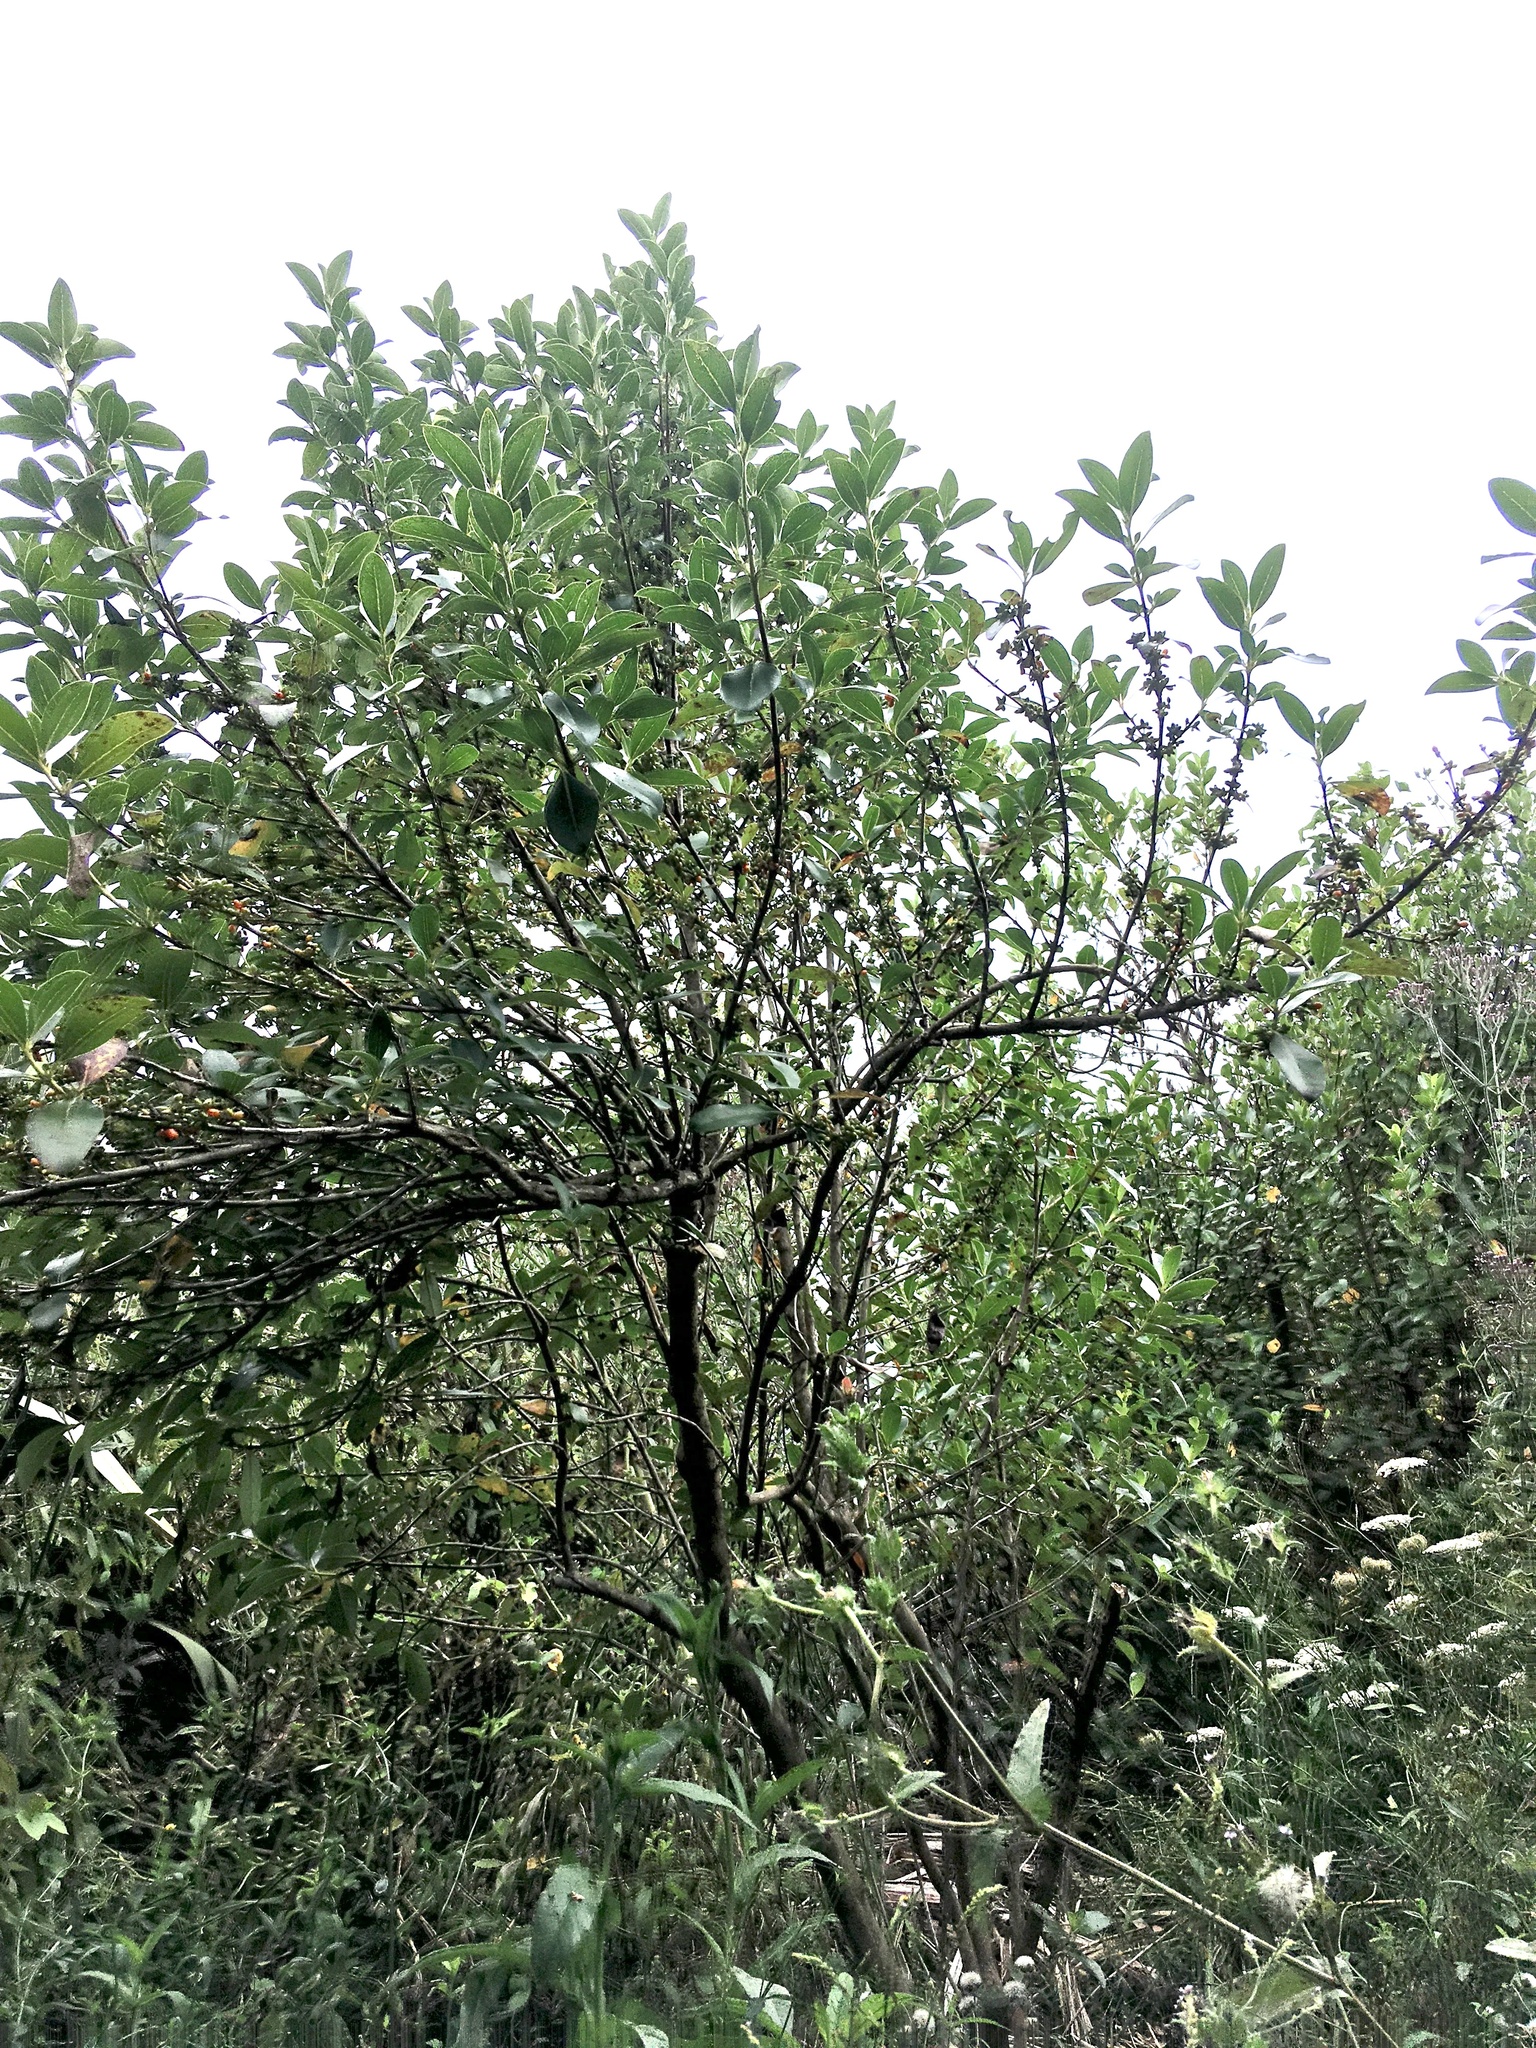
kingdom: Plantae
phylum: Tracheophyta
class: Magnoliopsida
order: Gentianales
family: Rubiaceae
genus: Coprosma
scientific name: Coprosma robusta
